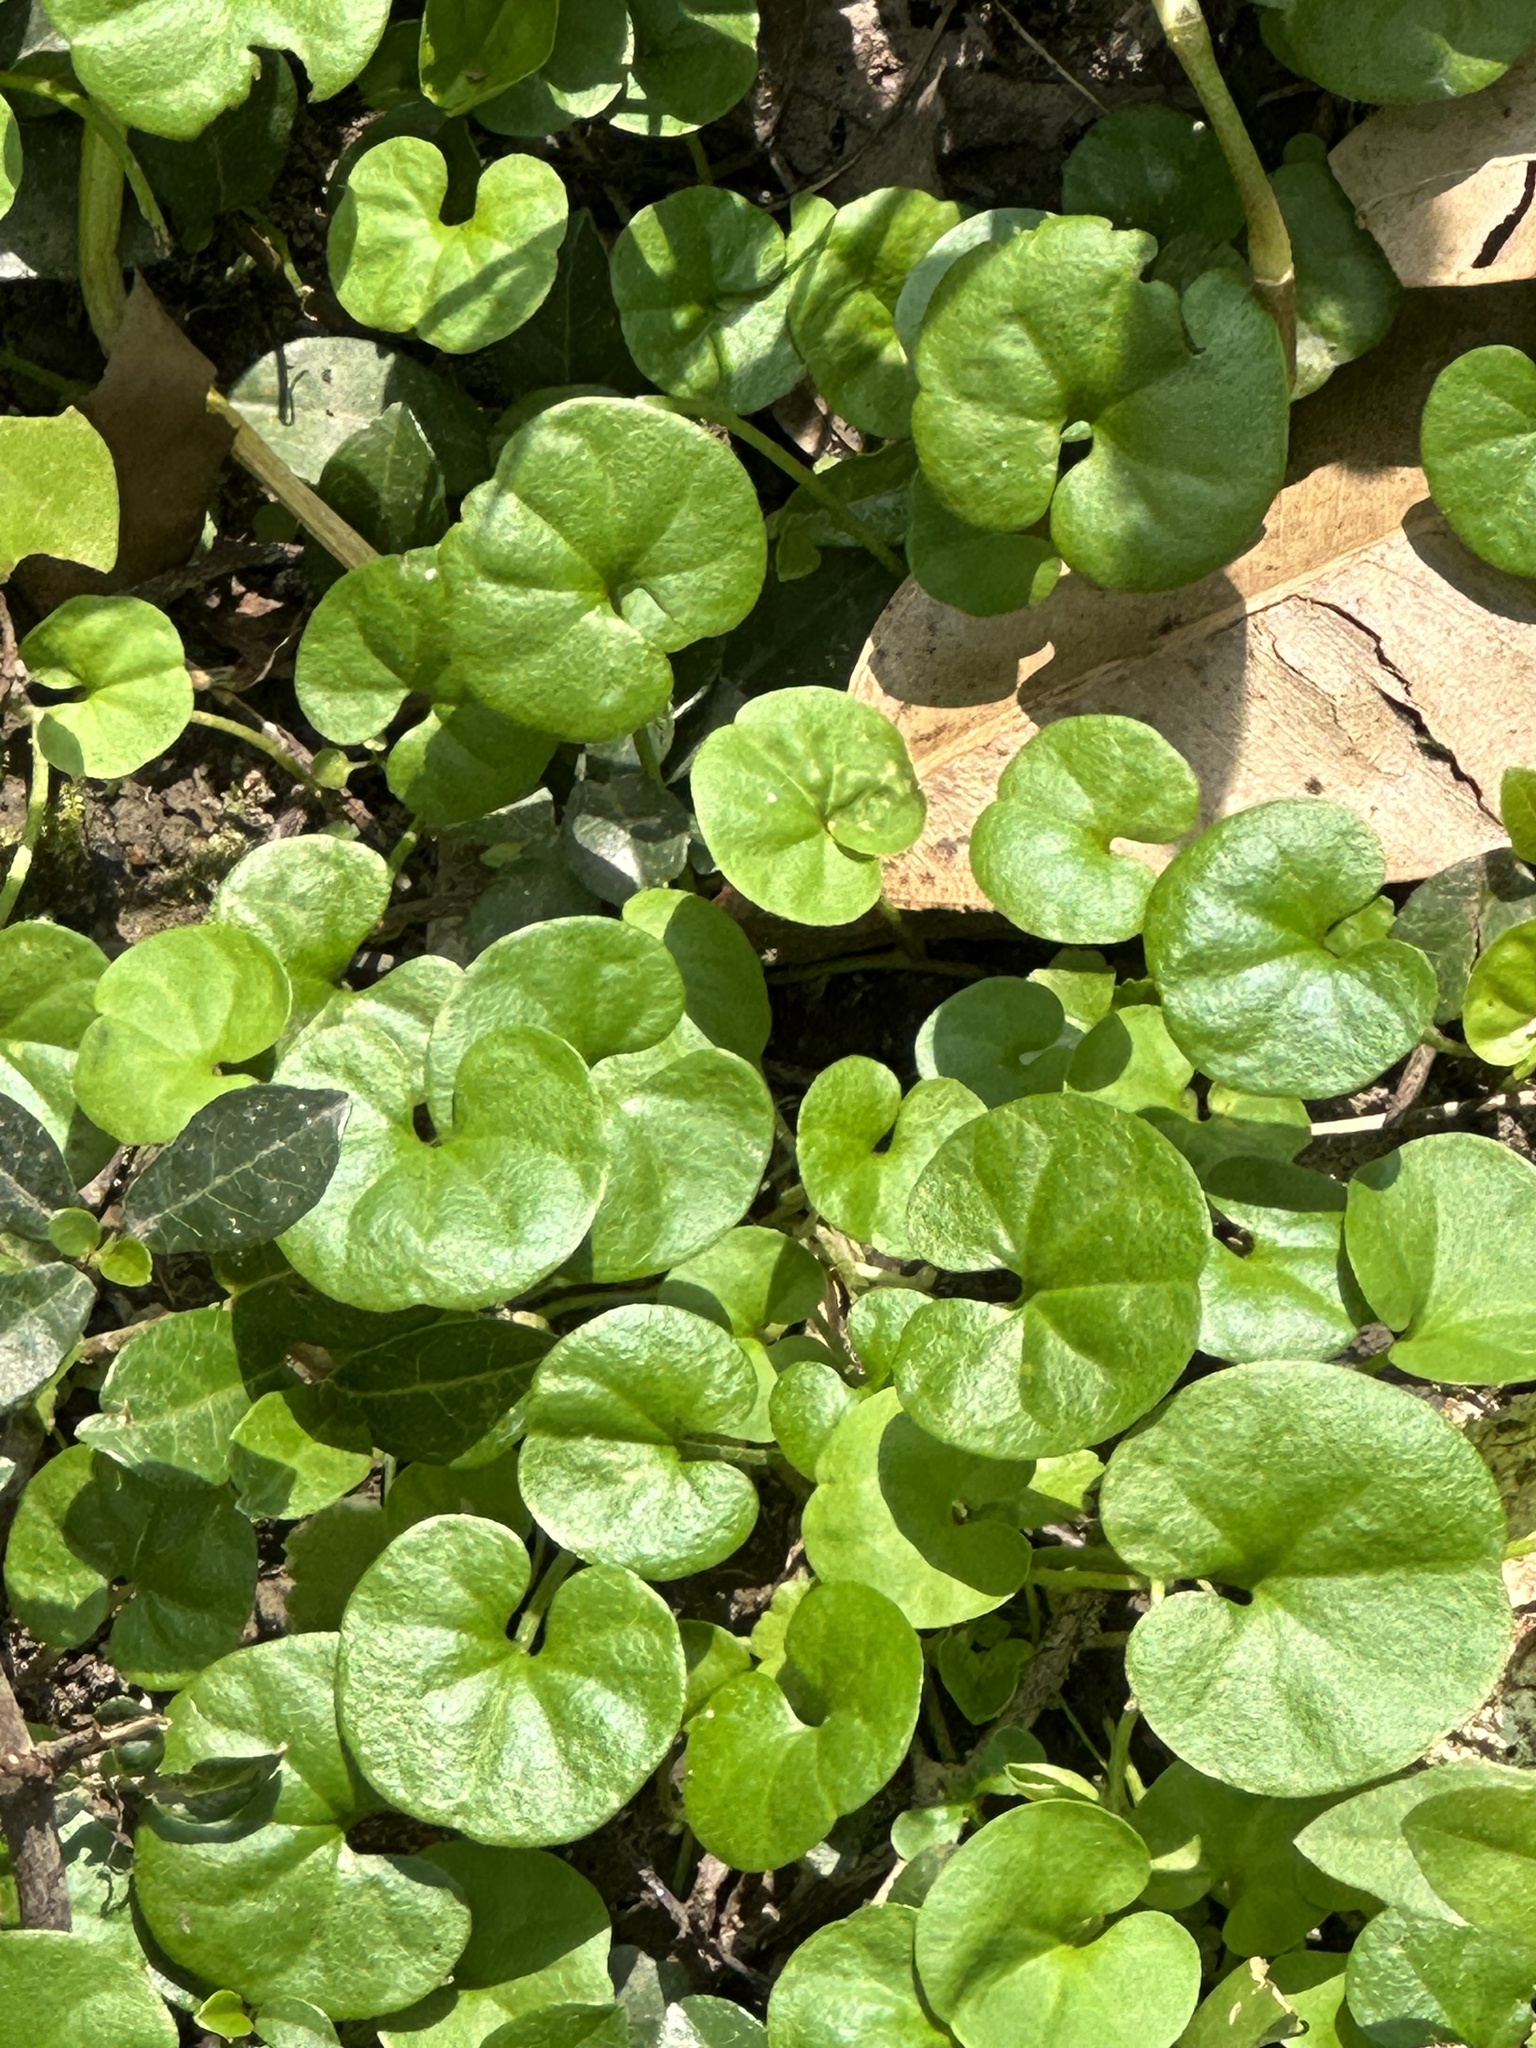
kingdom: Plantae
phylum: Tracheophyta
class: Magnoliopsida
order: Solanales
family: Convolvulaceae
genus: Dichondra
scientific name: Dichondra micrantha
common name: Kidneyweed
